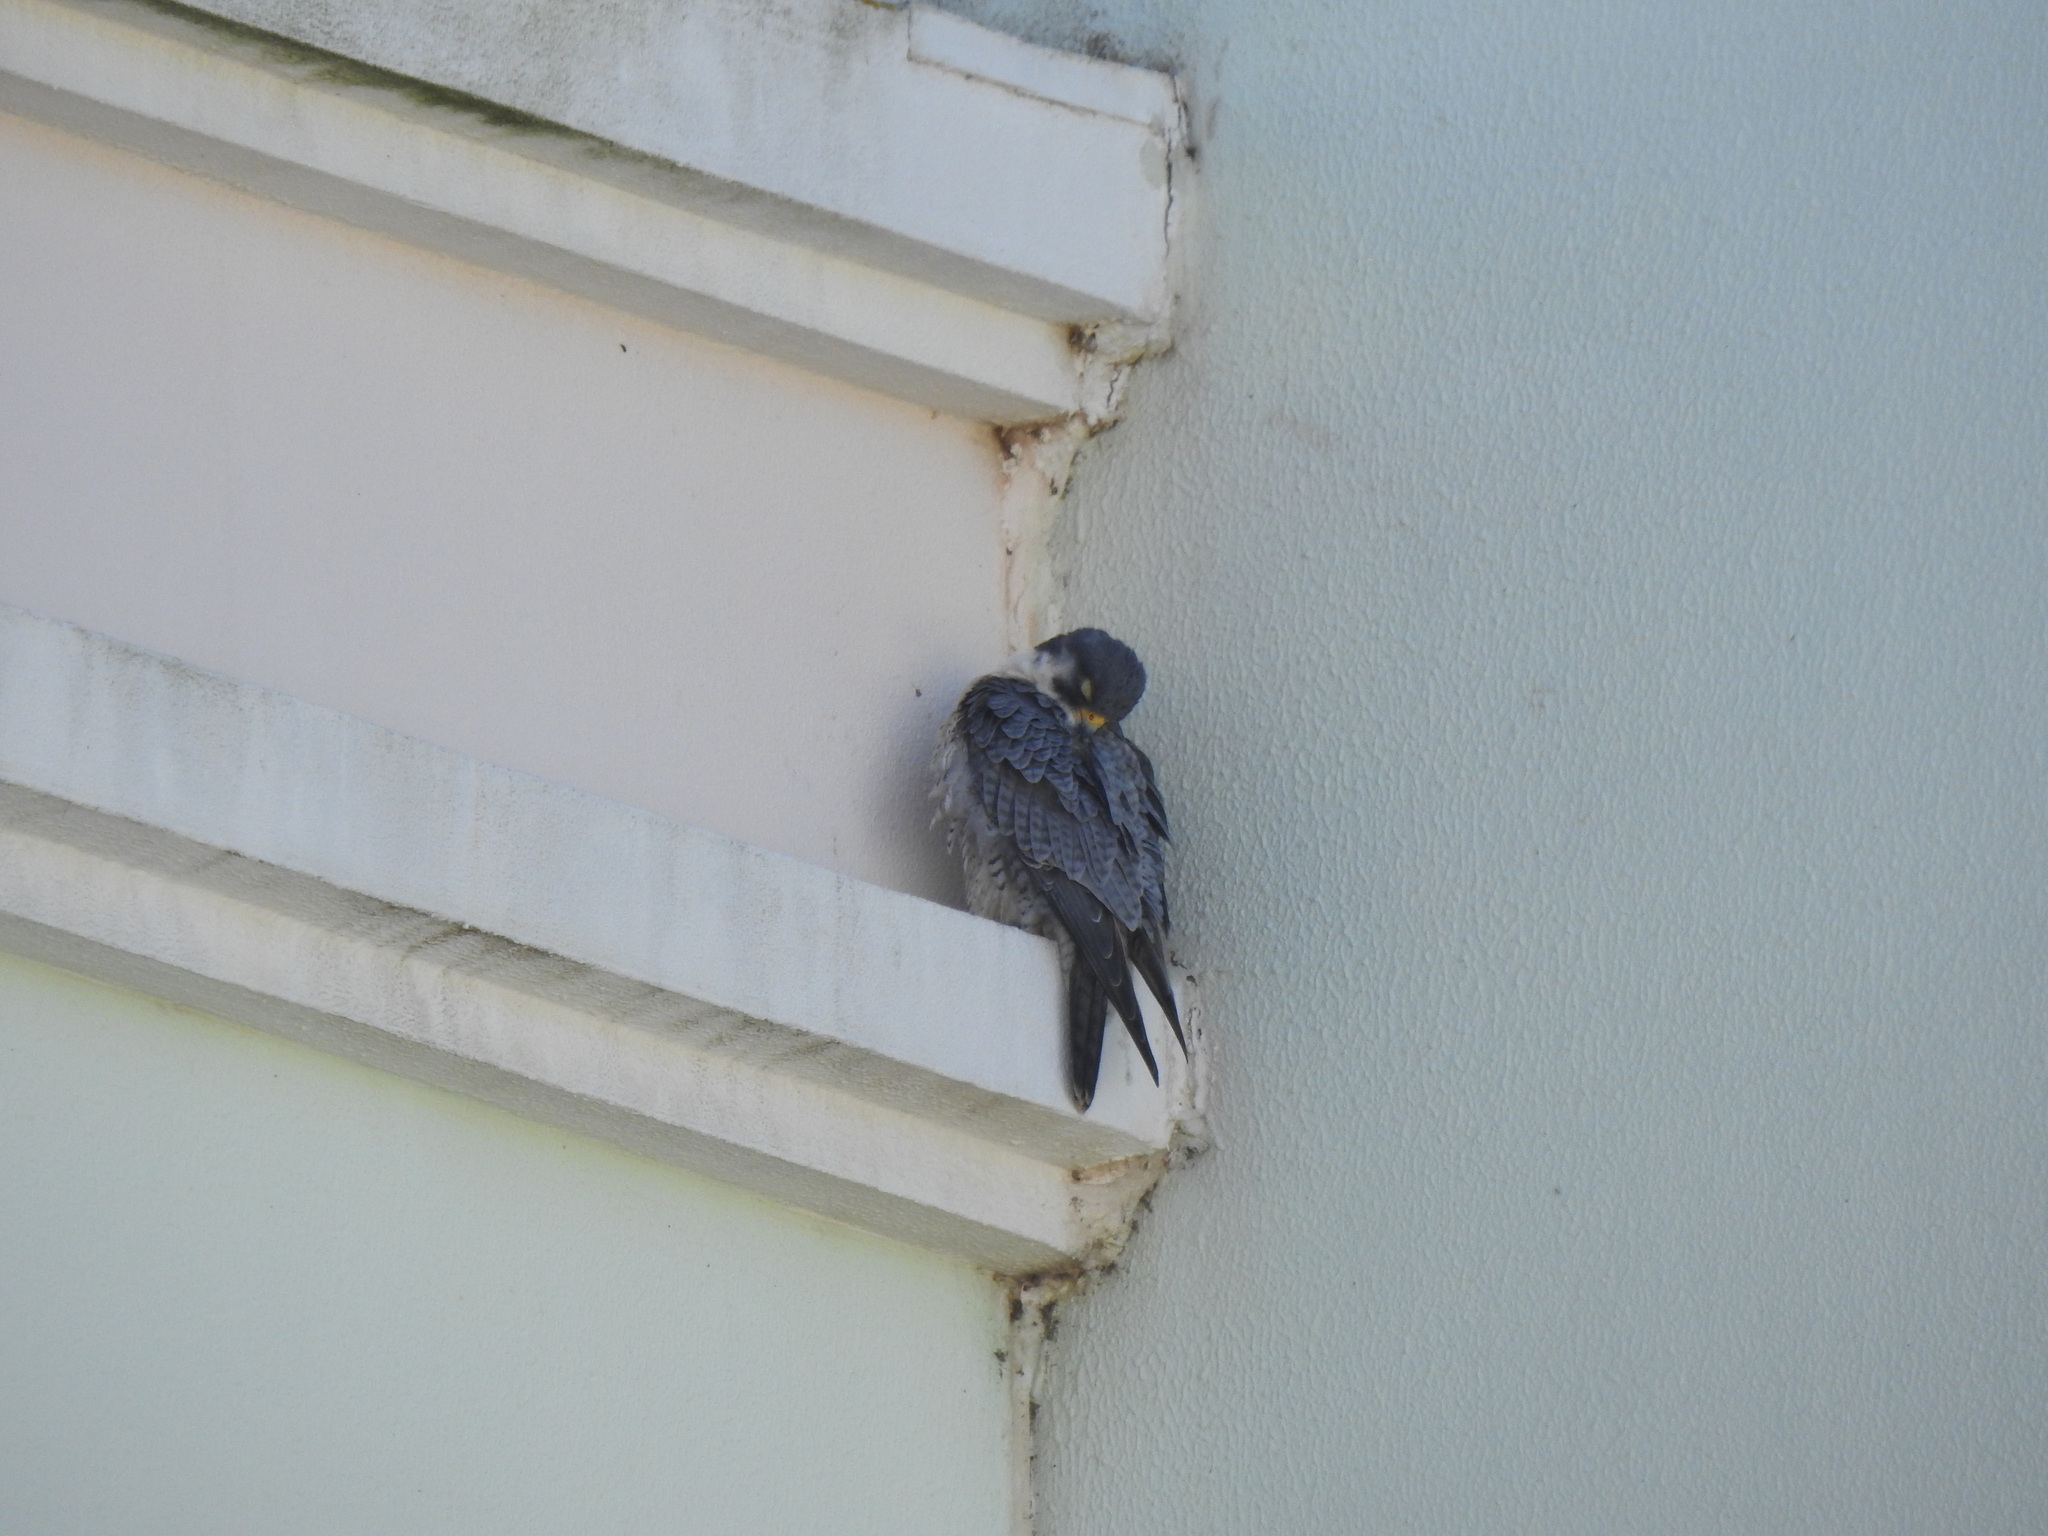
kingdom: Animalia
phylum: Chordata
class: Aves
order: Falconiformes
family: Falconidae
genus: Falco
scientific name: Falco peregrinus
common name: Peregrine falcon
